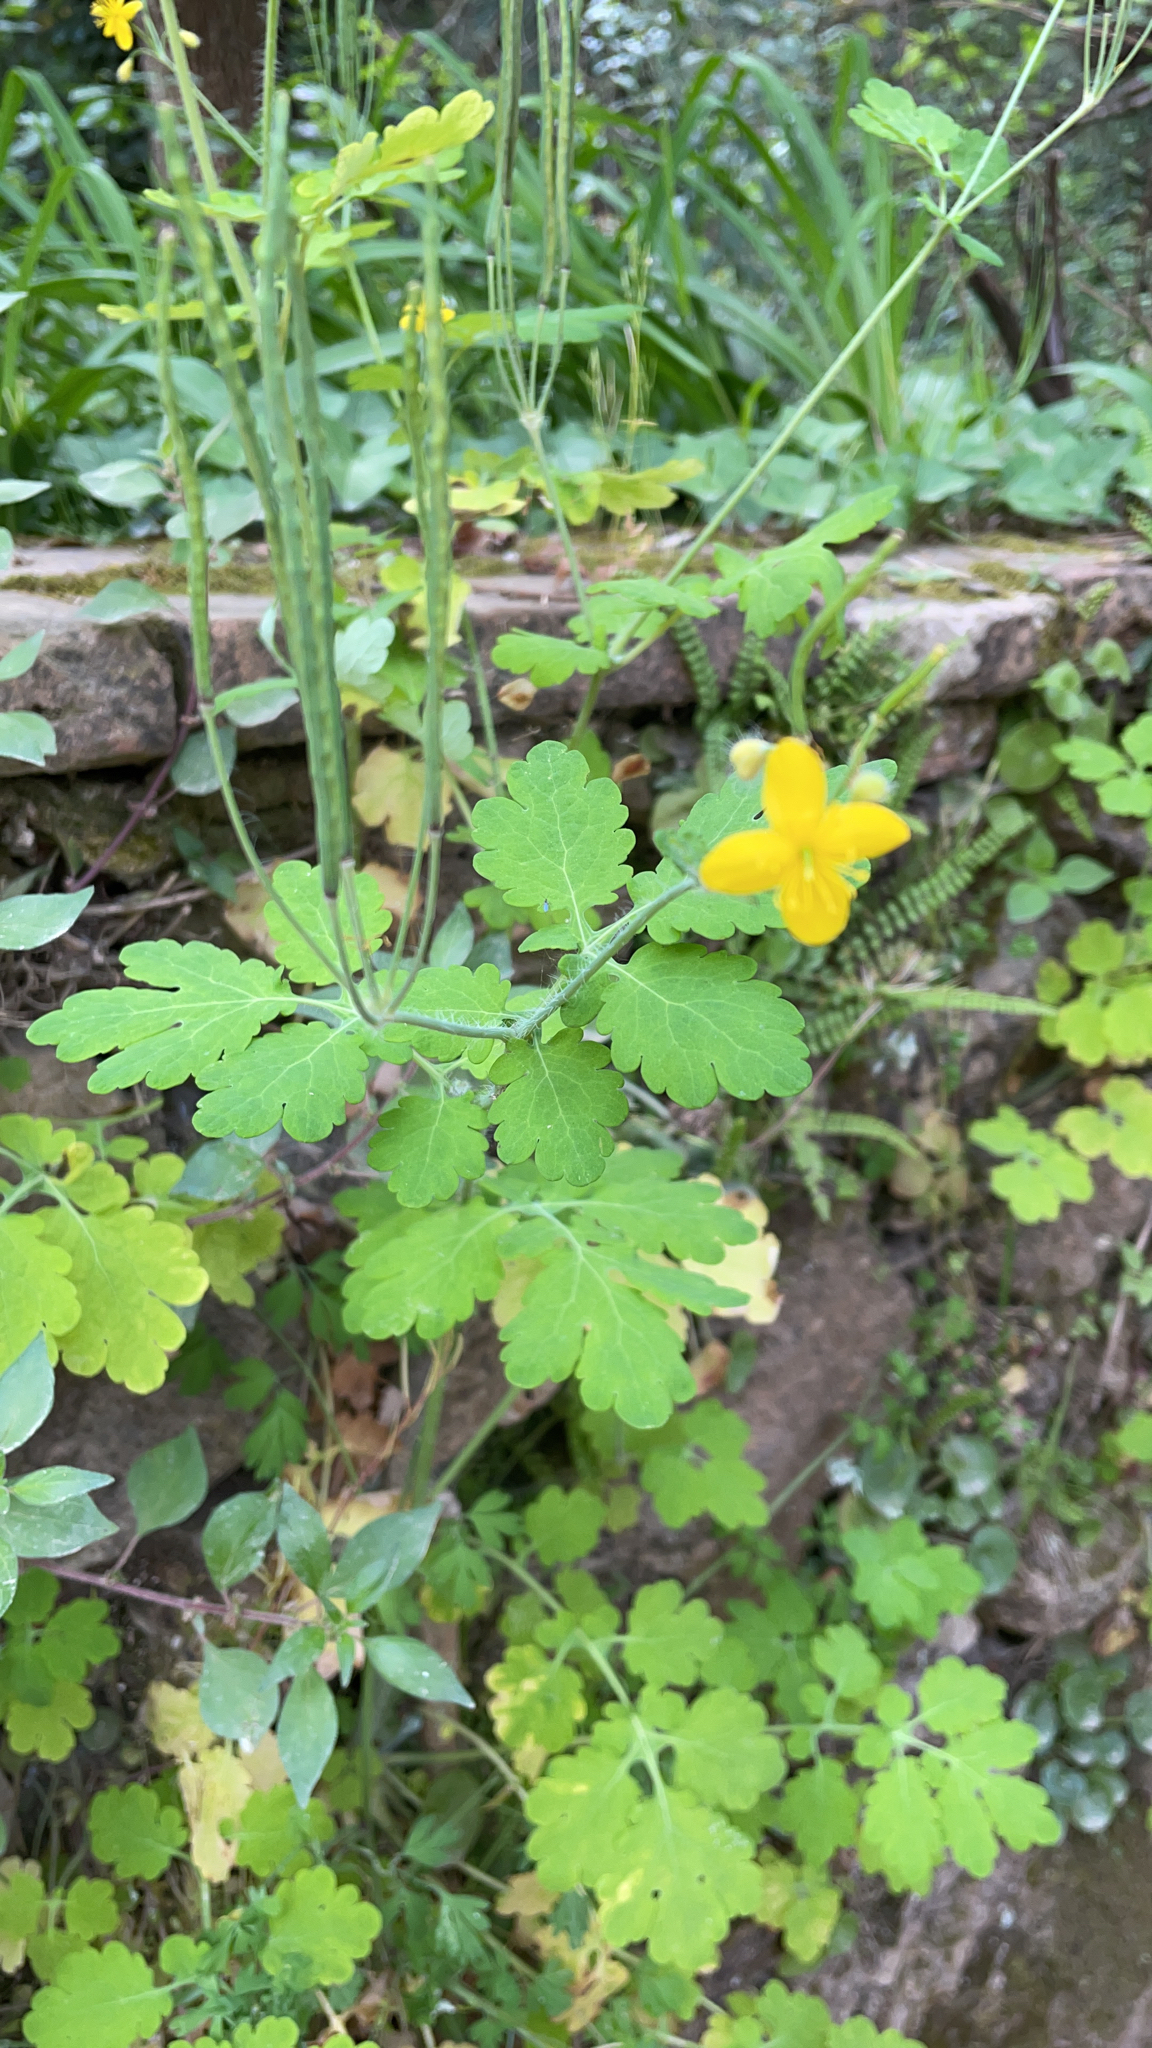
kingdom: Plantae
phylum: Tracheophyta
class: Magnoliopsida
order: Ranunculales
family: Papaveraceae
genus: Chelidonium
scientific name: Chelidonium majus
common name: Greater celandine
